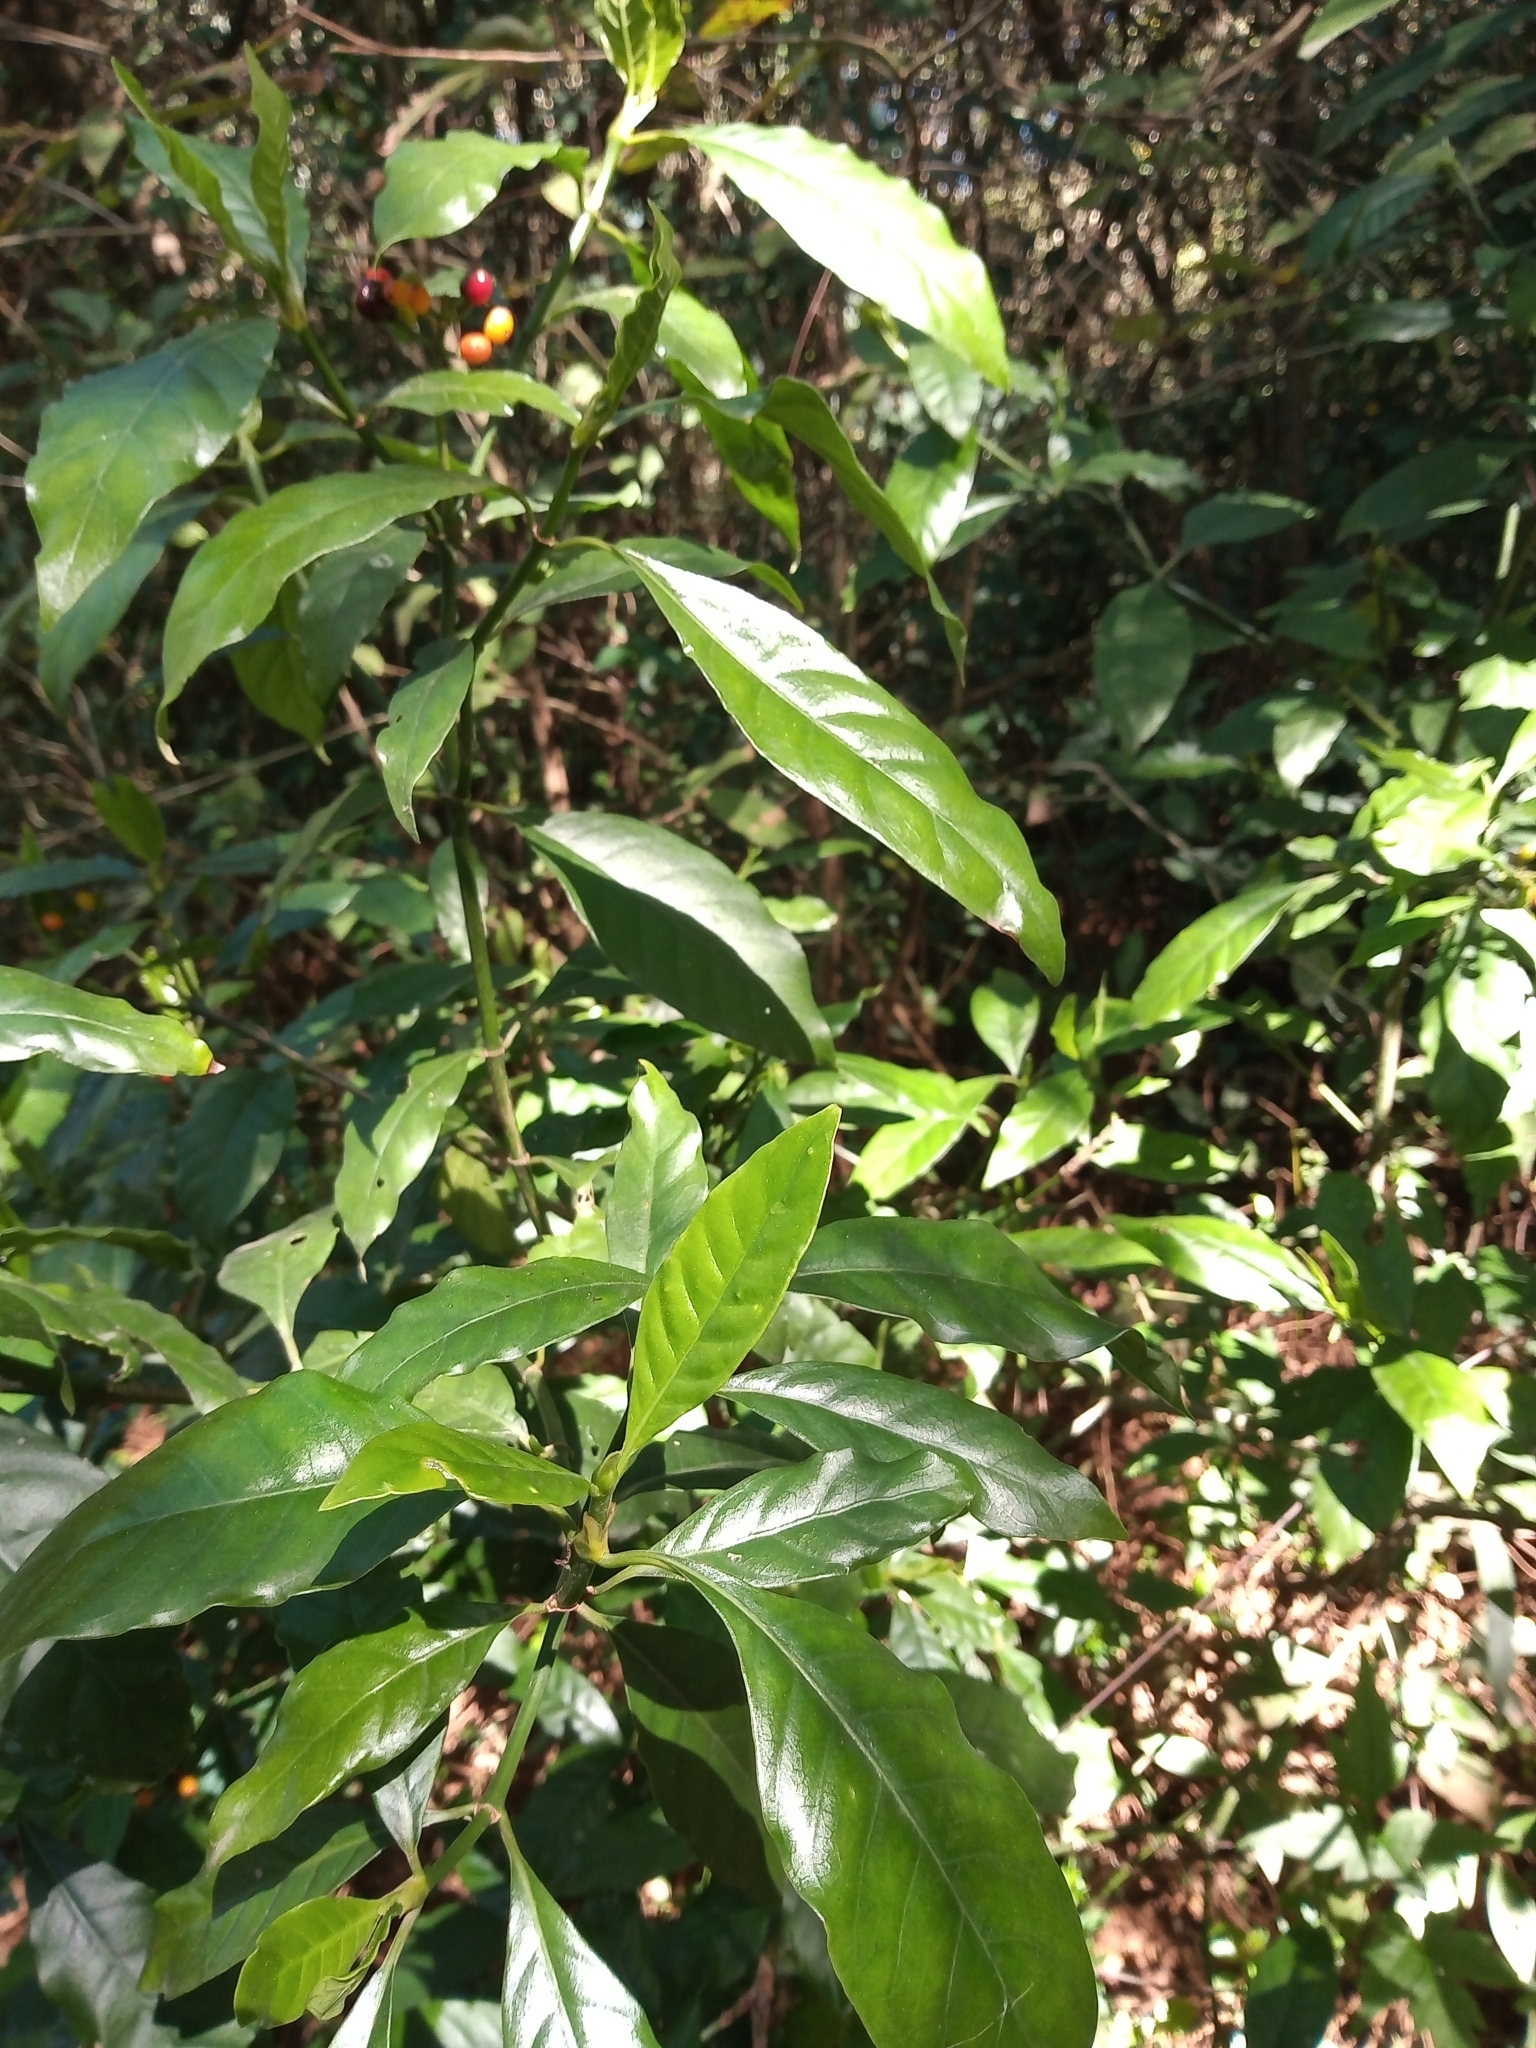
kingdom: Plantae
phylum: Tracheophyta
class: Magnoliopsida
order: Gentianales
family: Rubiaceae
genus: Psychotria
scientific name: Psychotria carthagenensis
